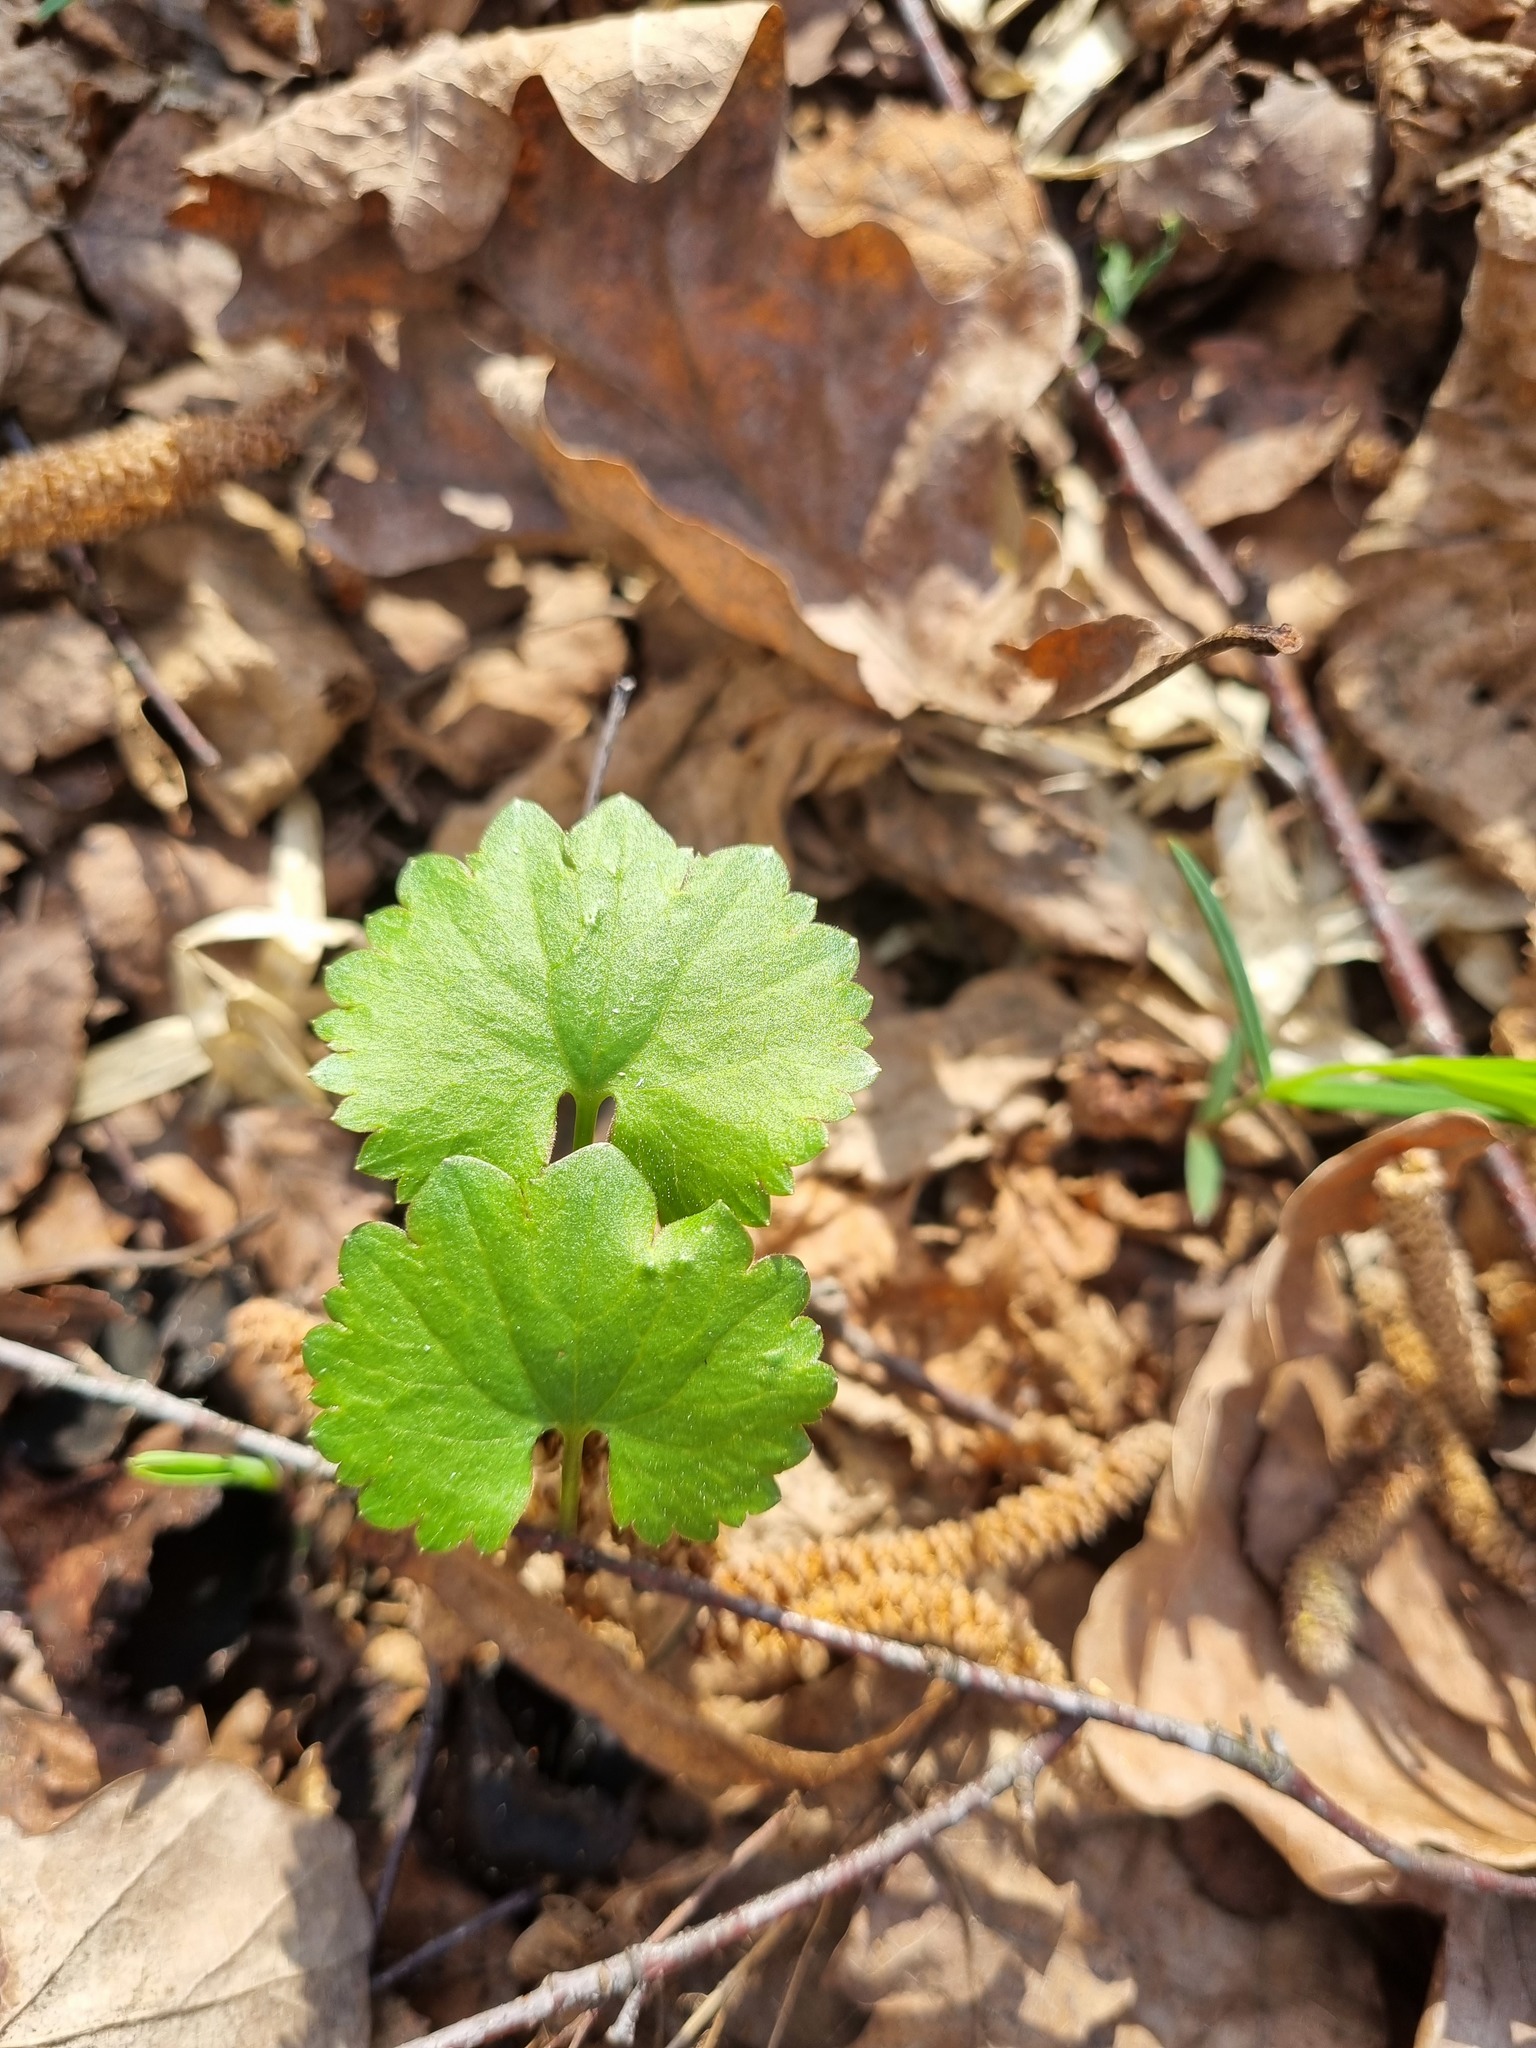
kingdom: Plantae
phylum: Tracheophyta
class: Magnoliopsida
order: Ranunculales
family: Ranunculaceae
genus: Ranunculus
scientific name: Ranunculus auricomus
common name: Goldilocks buttercup
